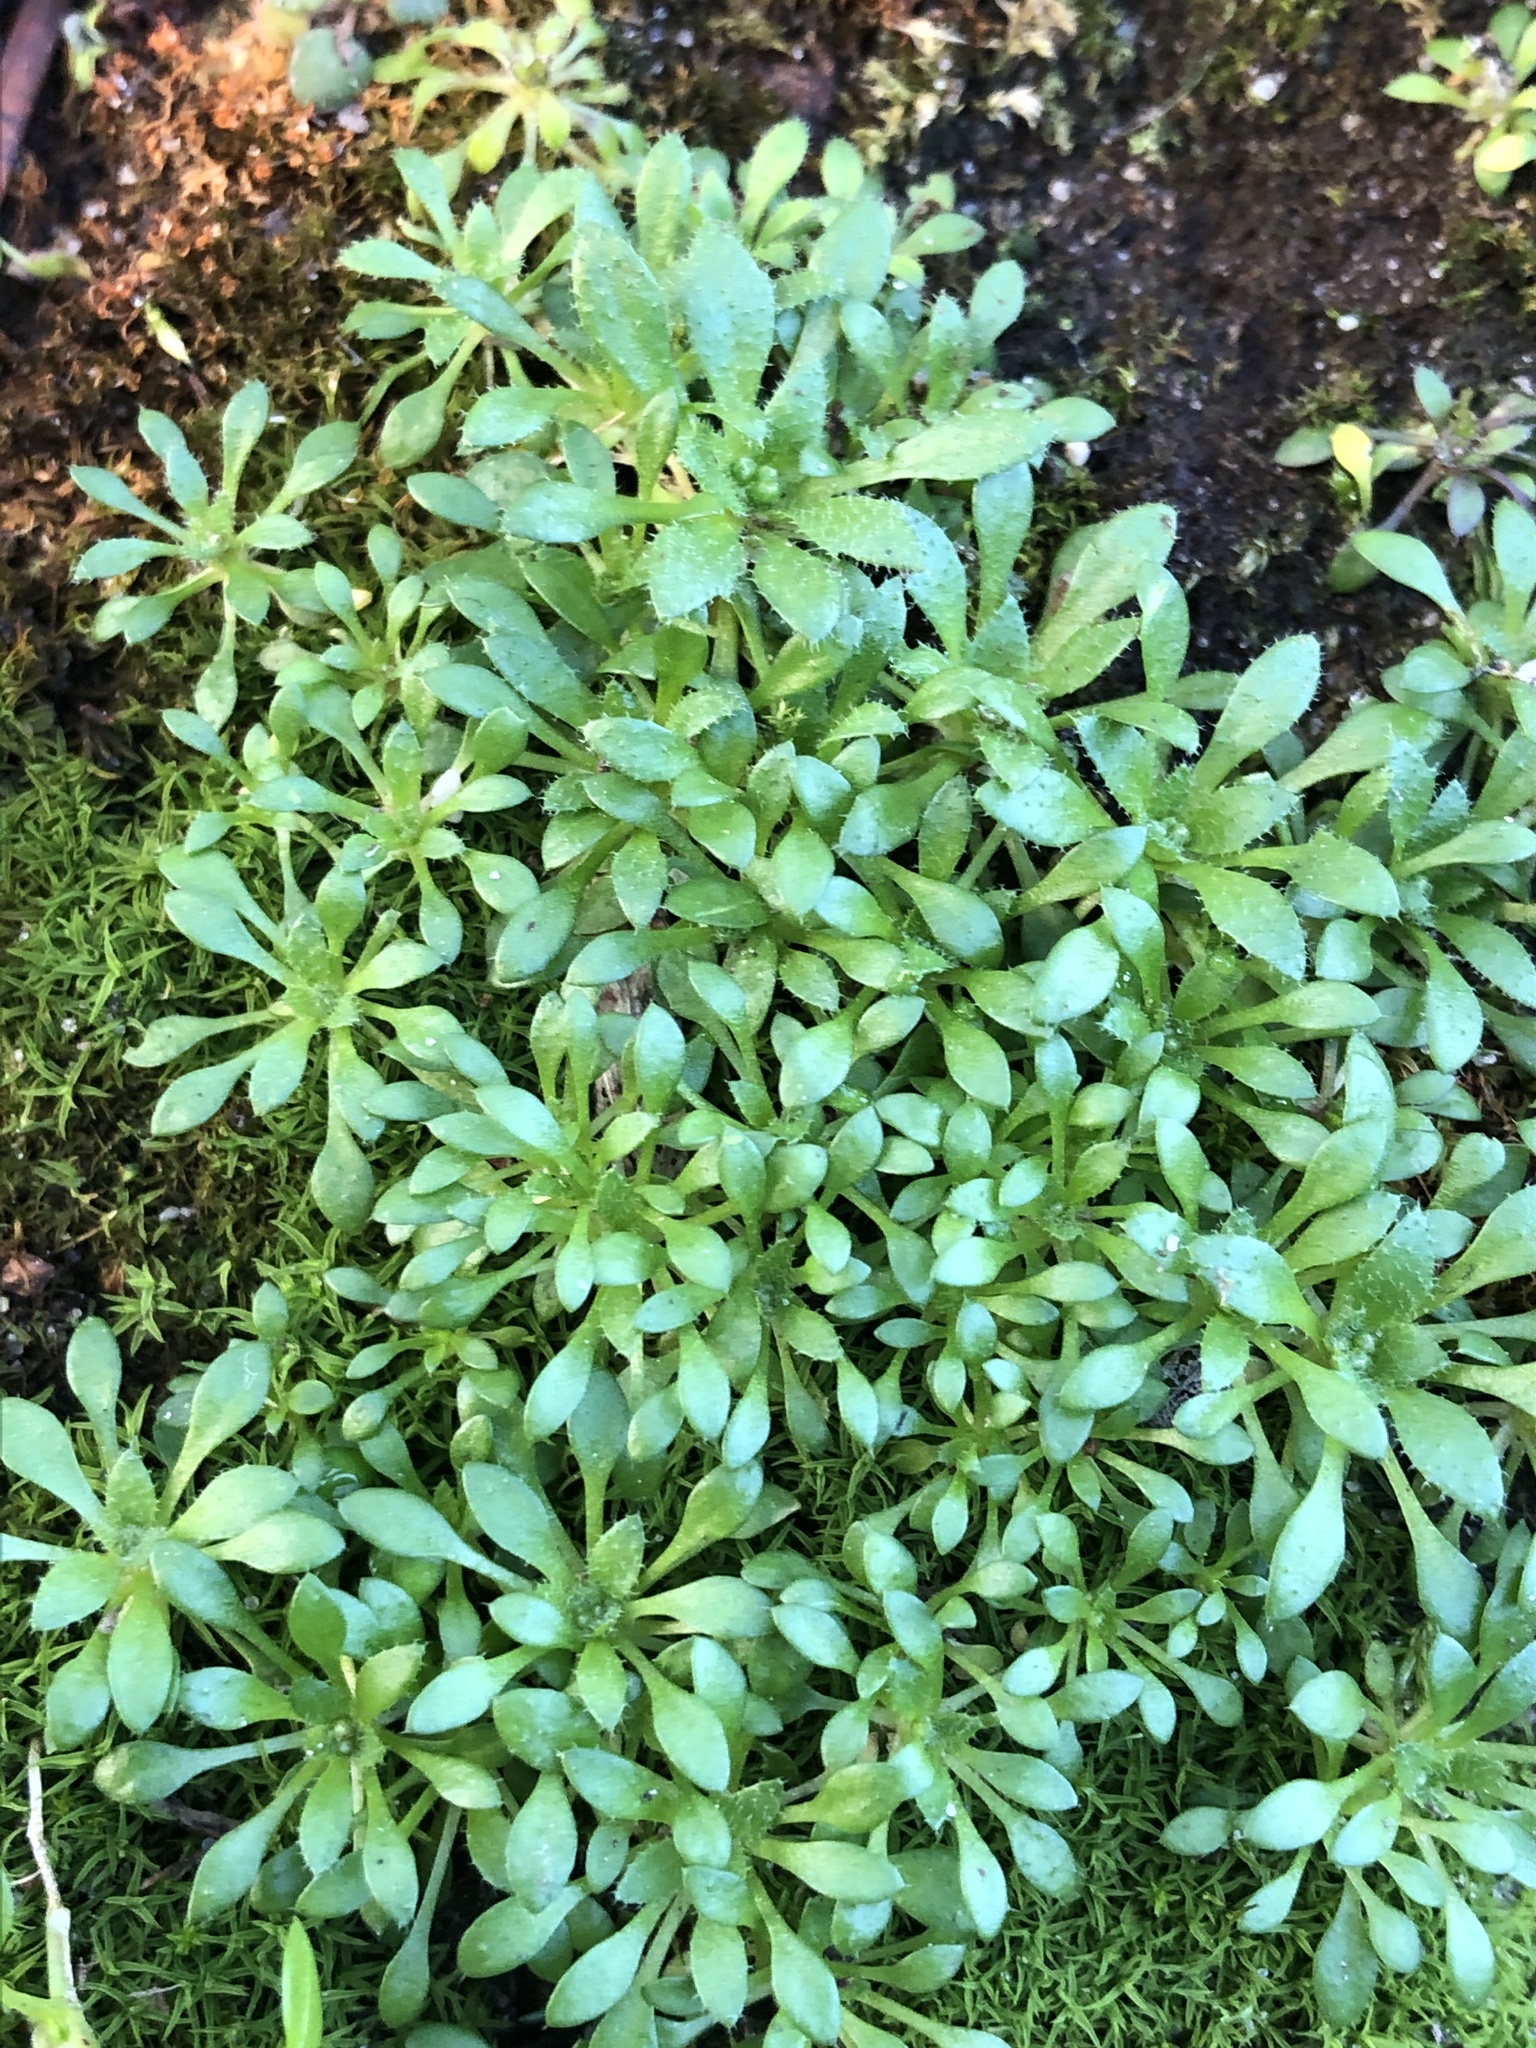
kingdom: Plantae
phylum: Tracheophyta
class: Magnoliopsida
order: Brassicales
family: Brassicaceae
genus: Draba
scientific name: Draba verna
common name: Spring draba
